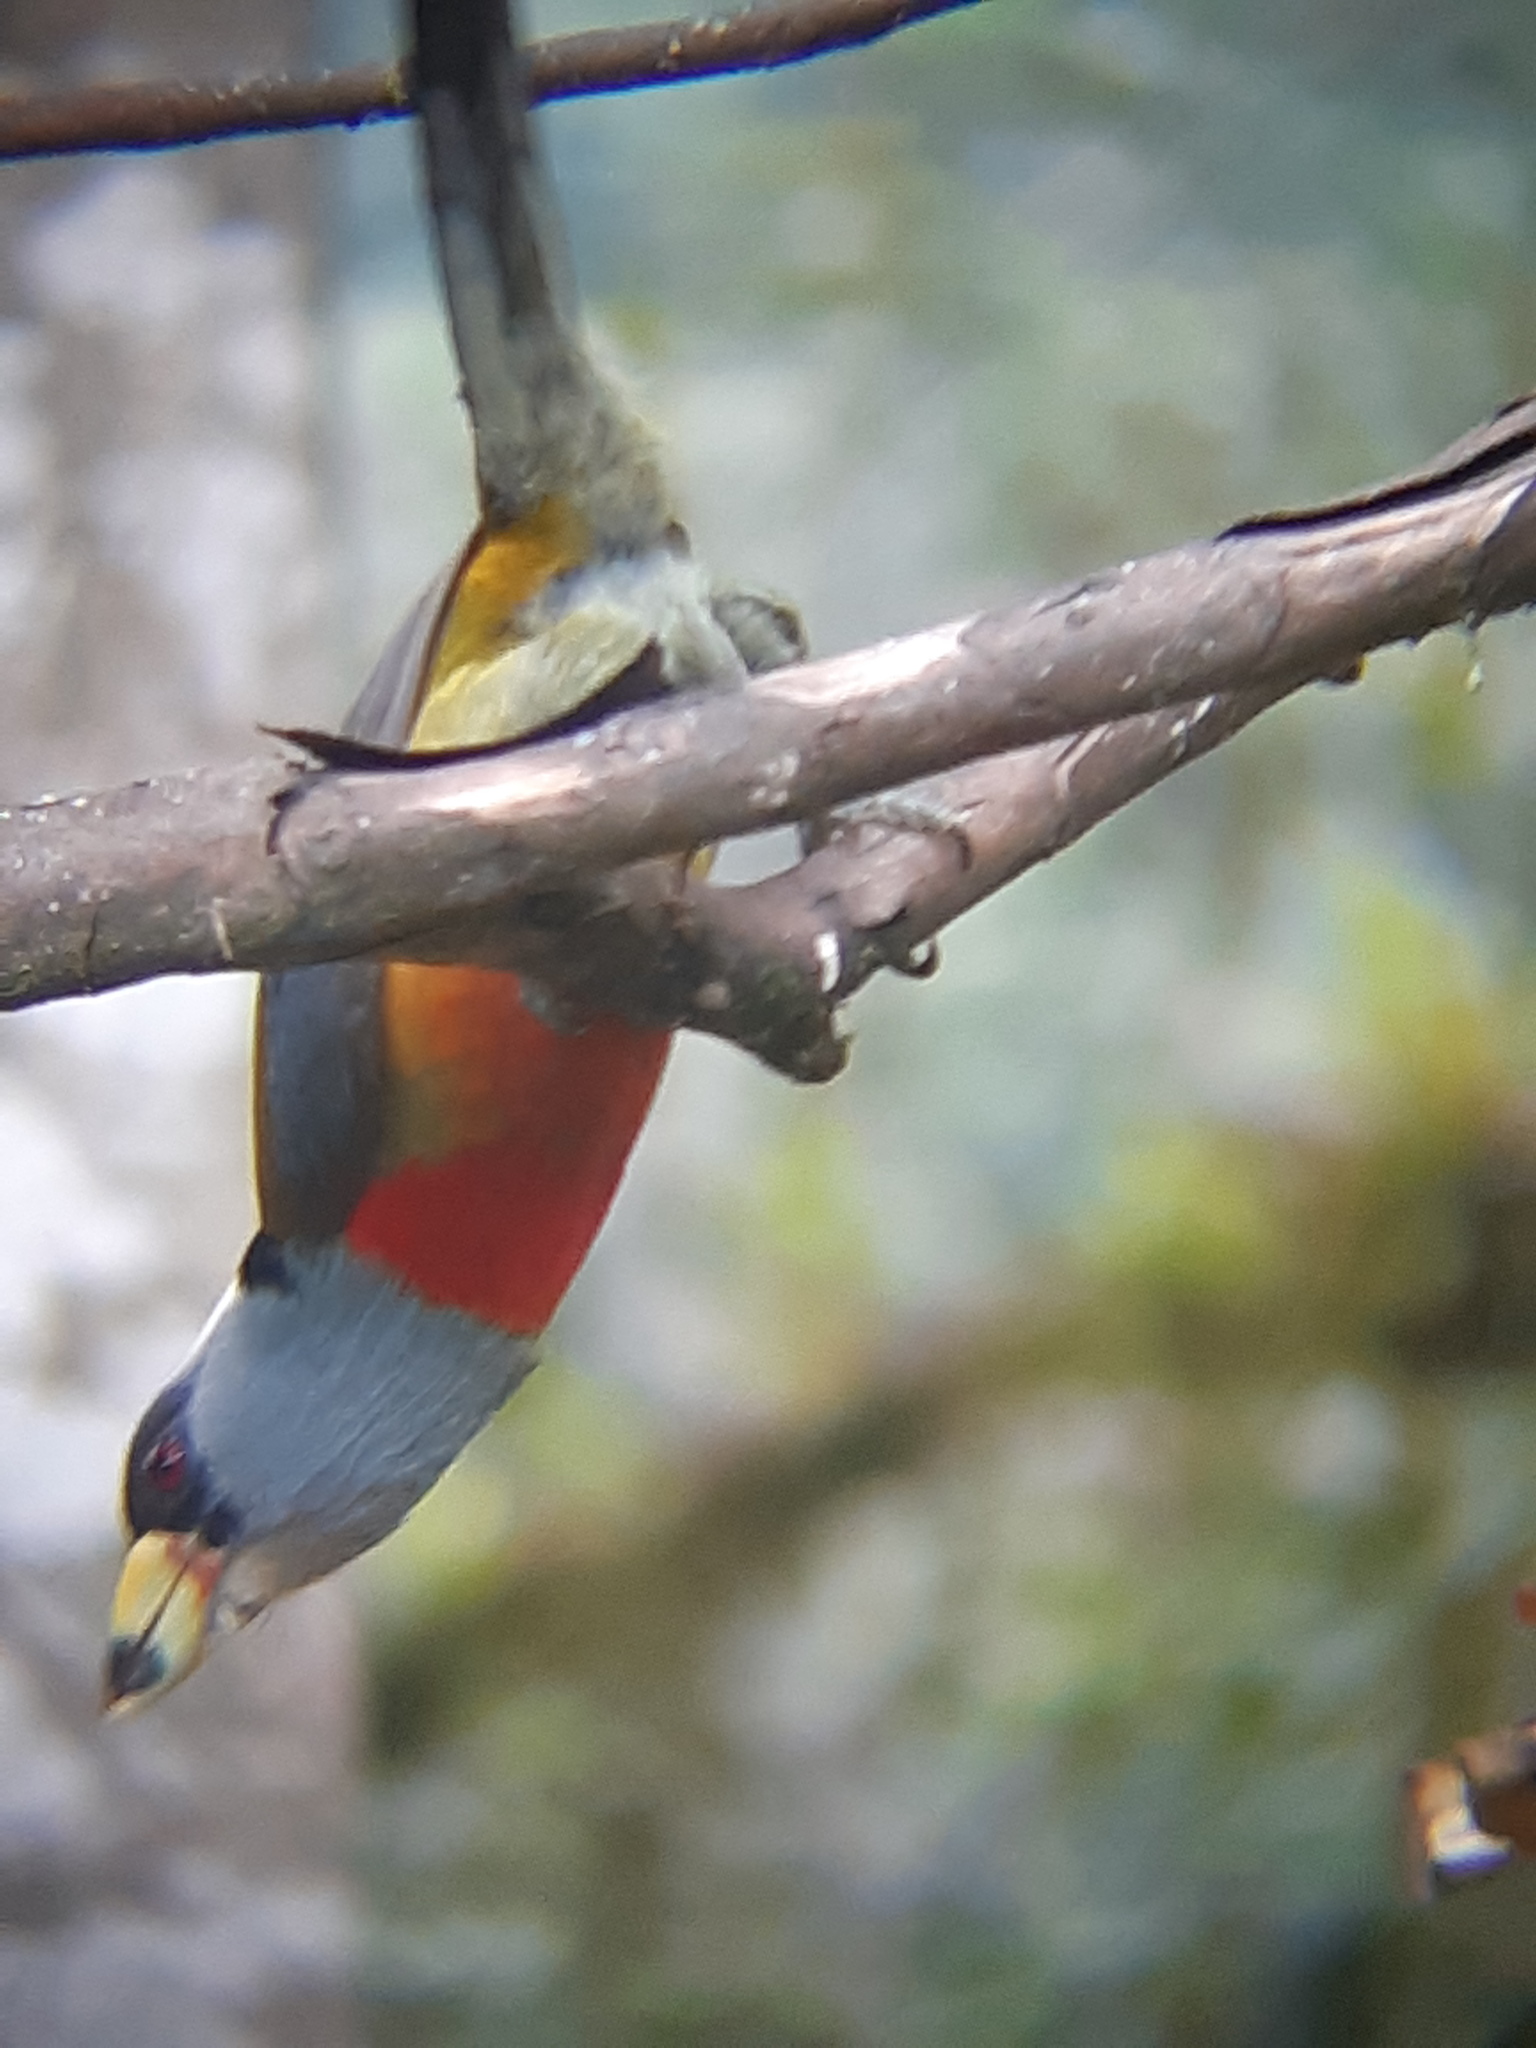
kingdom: Animalia
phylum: Chordata
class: Aves
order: Piciformes
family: Semnornithidae
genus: Semnornis
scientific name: Semnornis ramphastinus
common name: Toucan barbet
